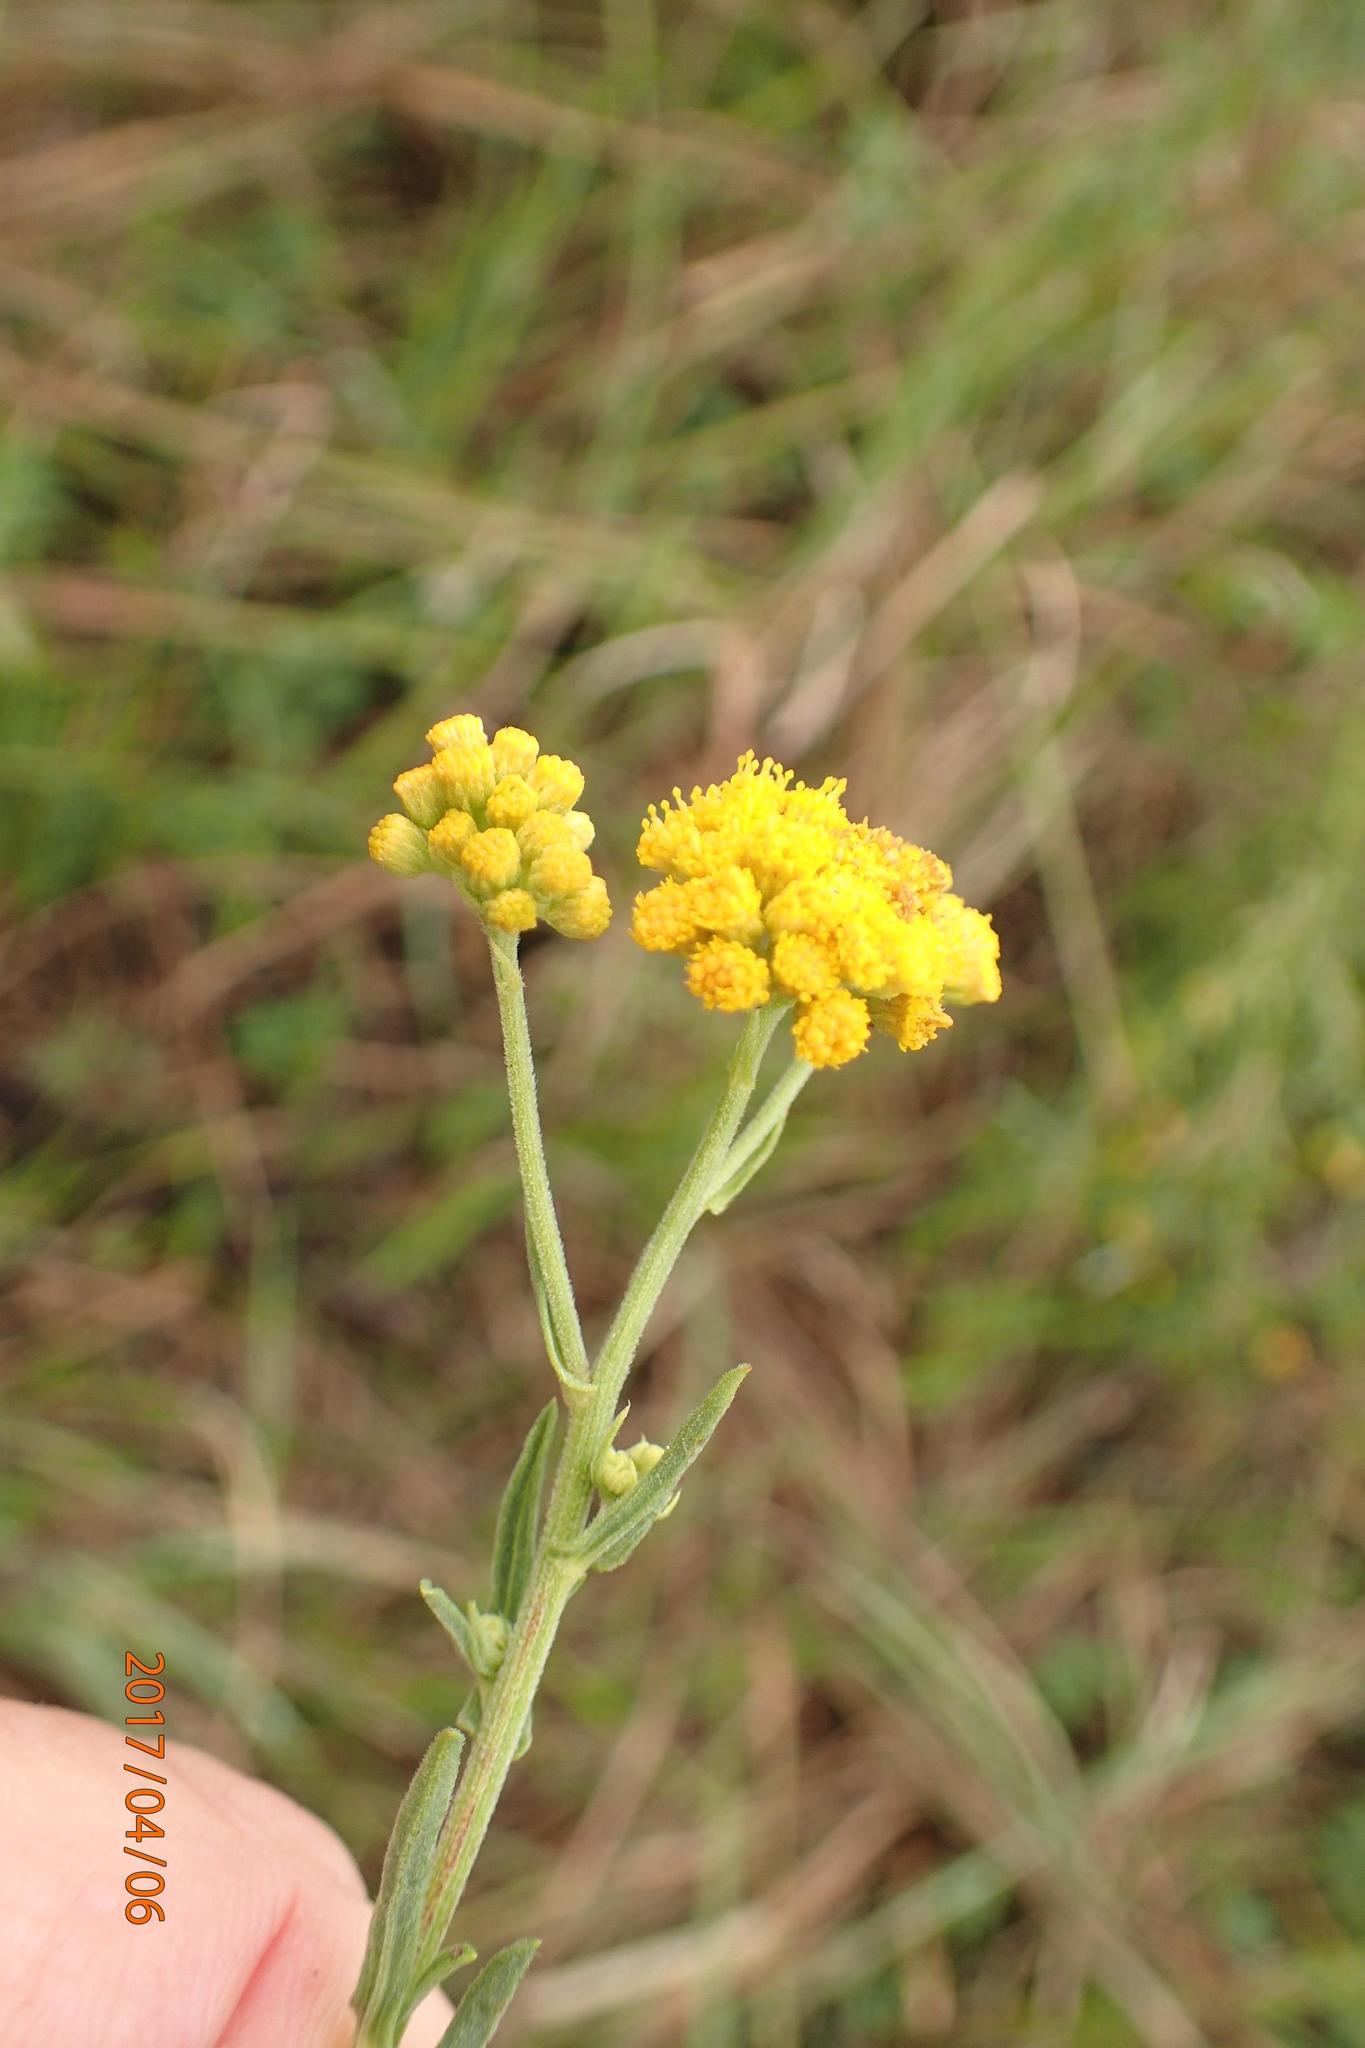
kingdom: Plantae
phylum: Tracheophyta
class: Magnoliopsida
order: Asterales
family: Asteraceae
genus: Nidorella
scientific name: Nidorella anomala
